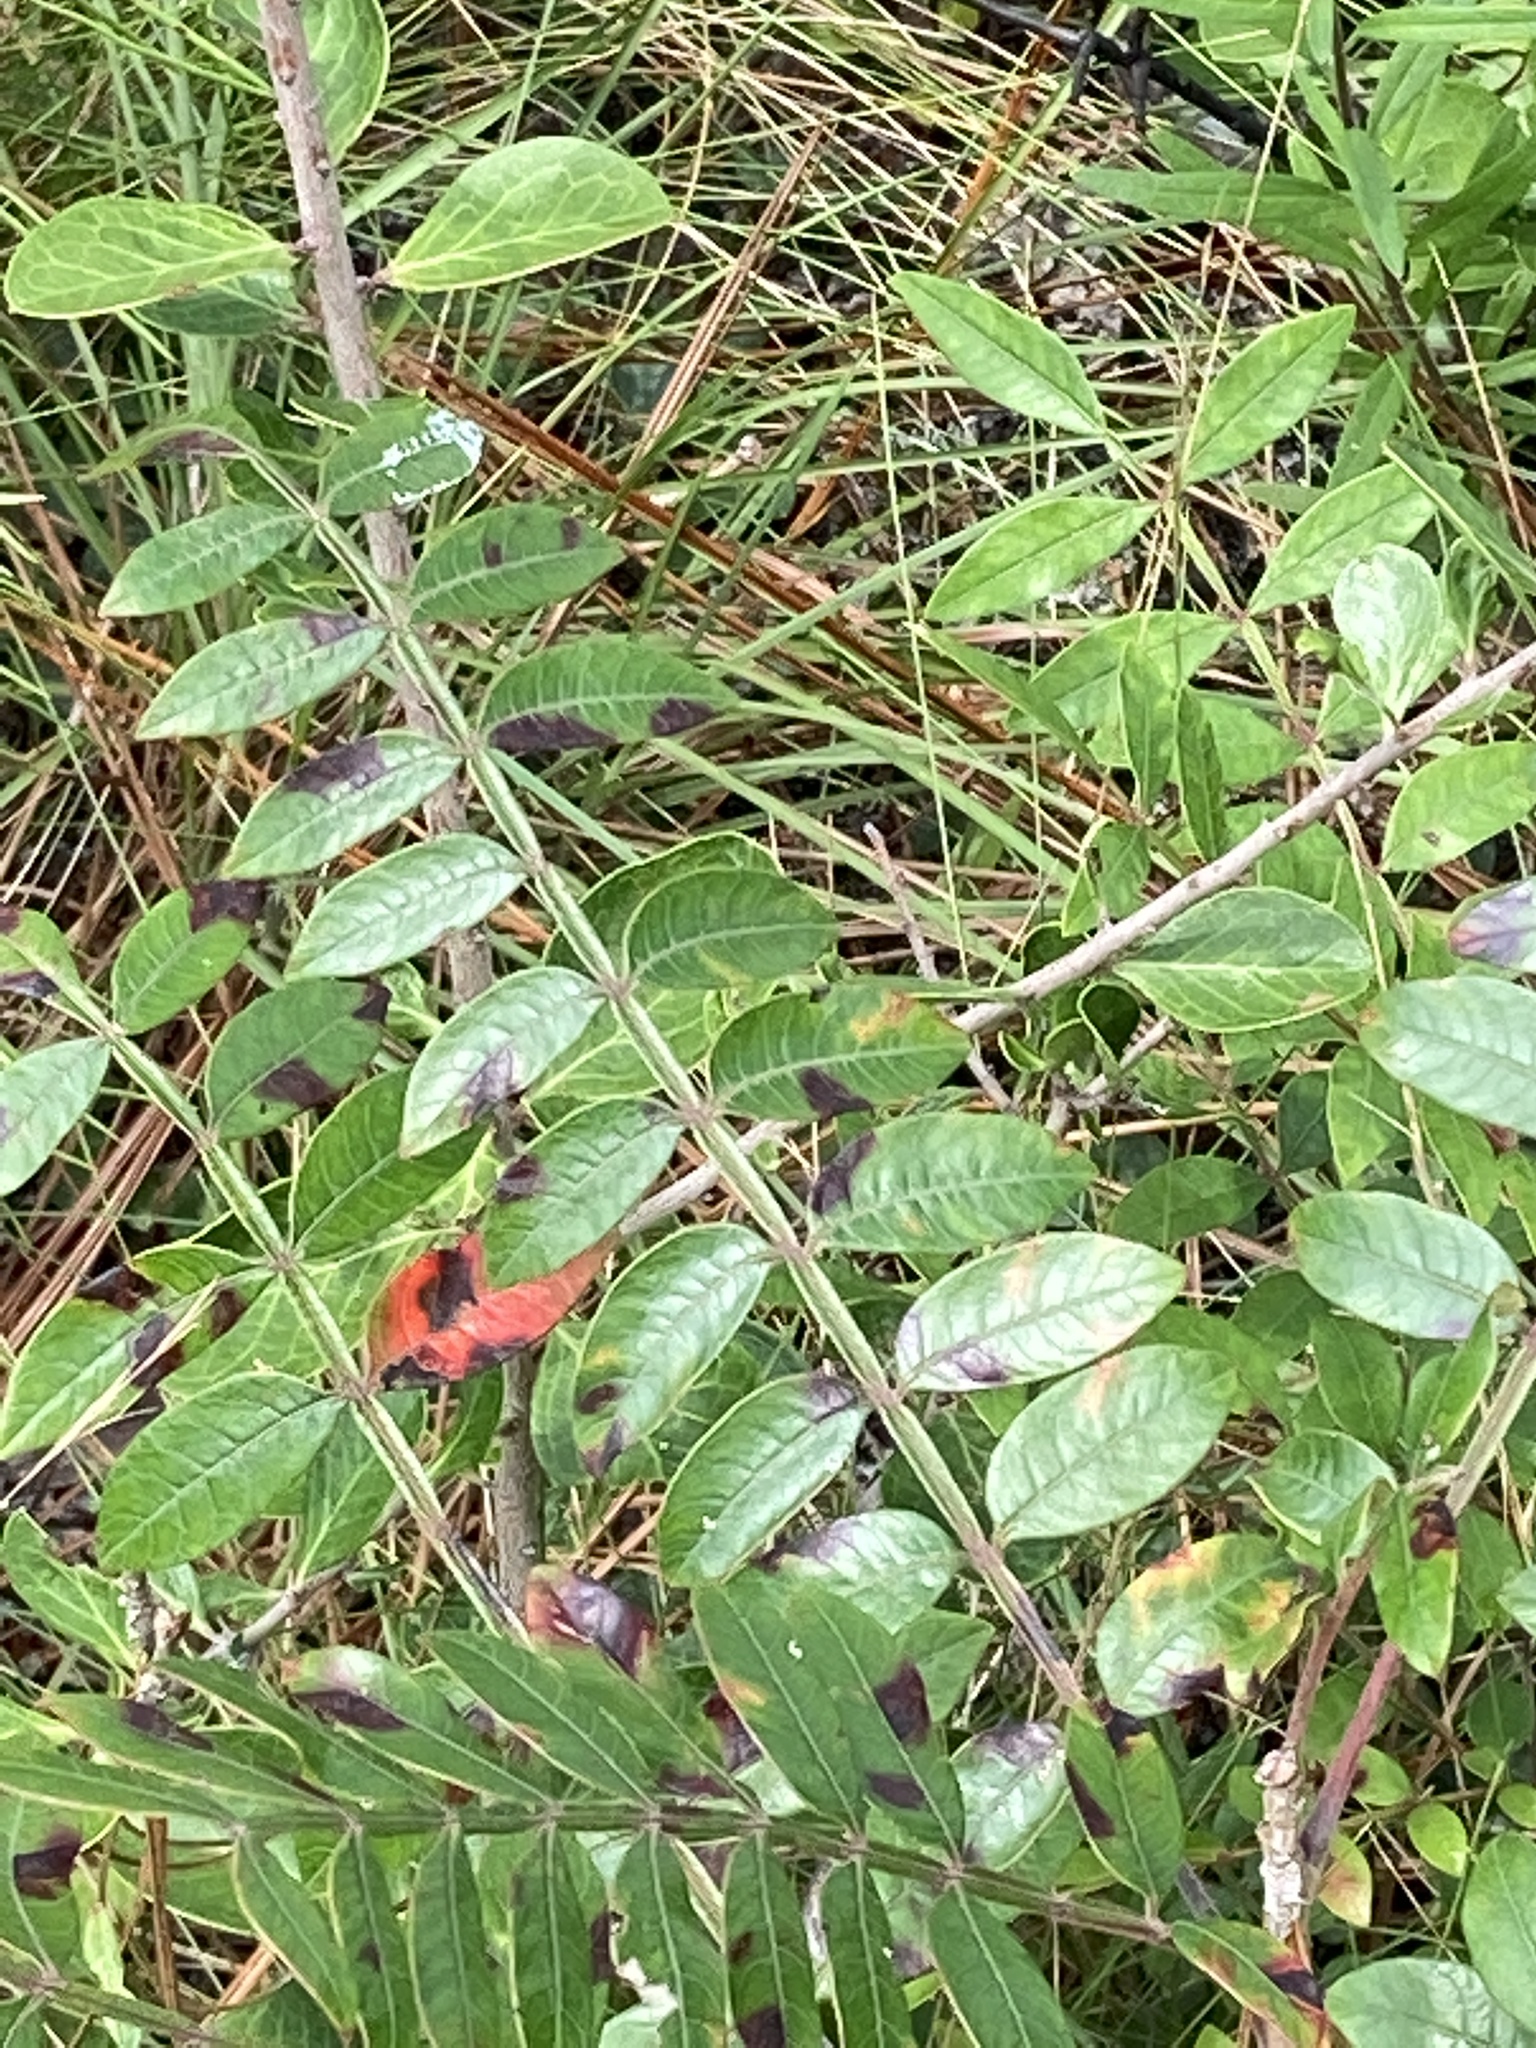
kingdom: Plantae
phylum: Tracheophyta
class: Magnoliopsida
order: Sapindales
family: Anacardiaceae
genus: Rhus
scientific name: Rhus copallina
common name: Shining sumac
